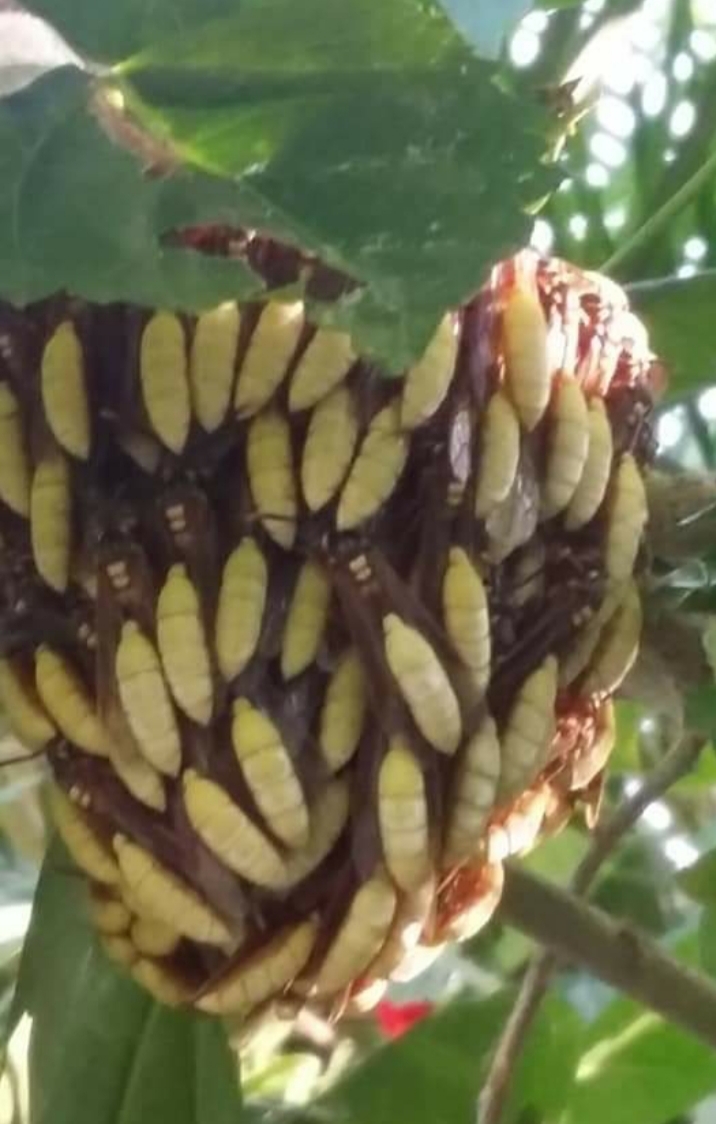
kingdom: Animalia
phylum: Arthropoda
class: Insecta
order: Hymenoptera
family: Vespidae
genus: Apoica
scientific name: Apoica pallens
